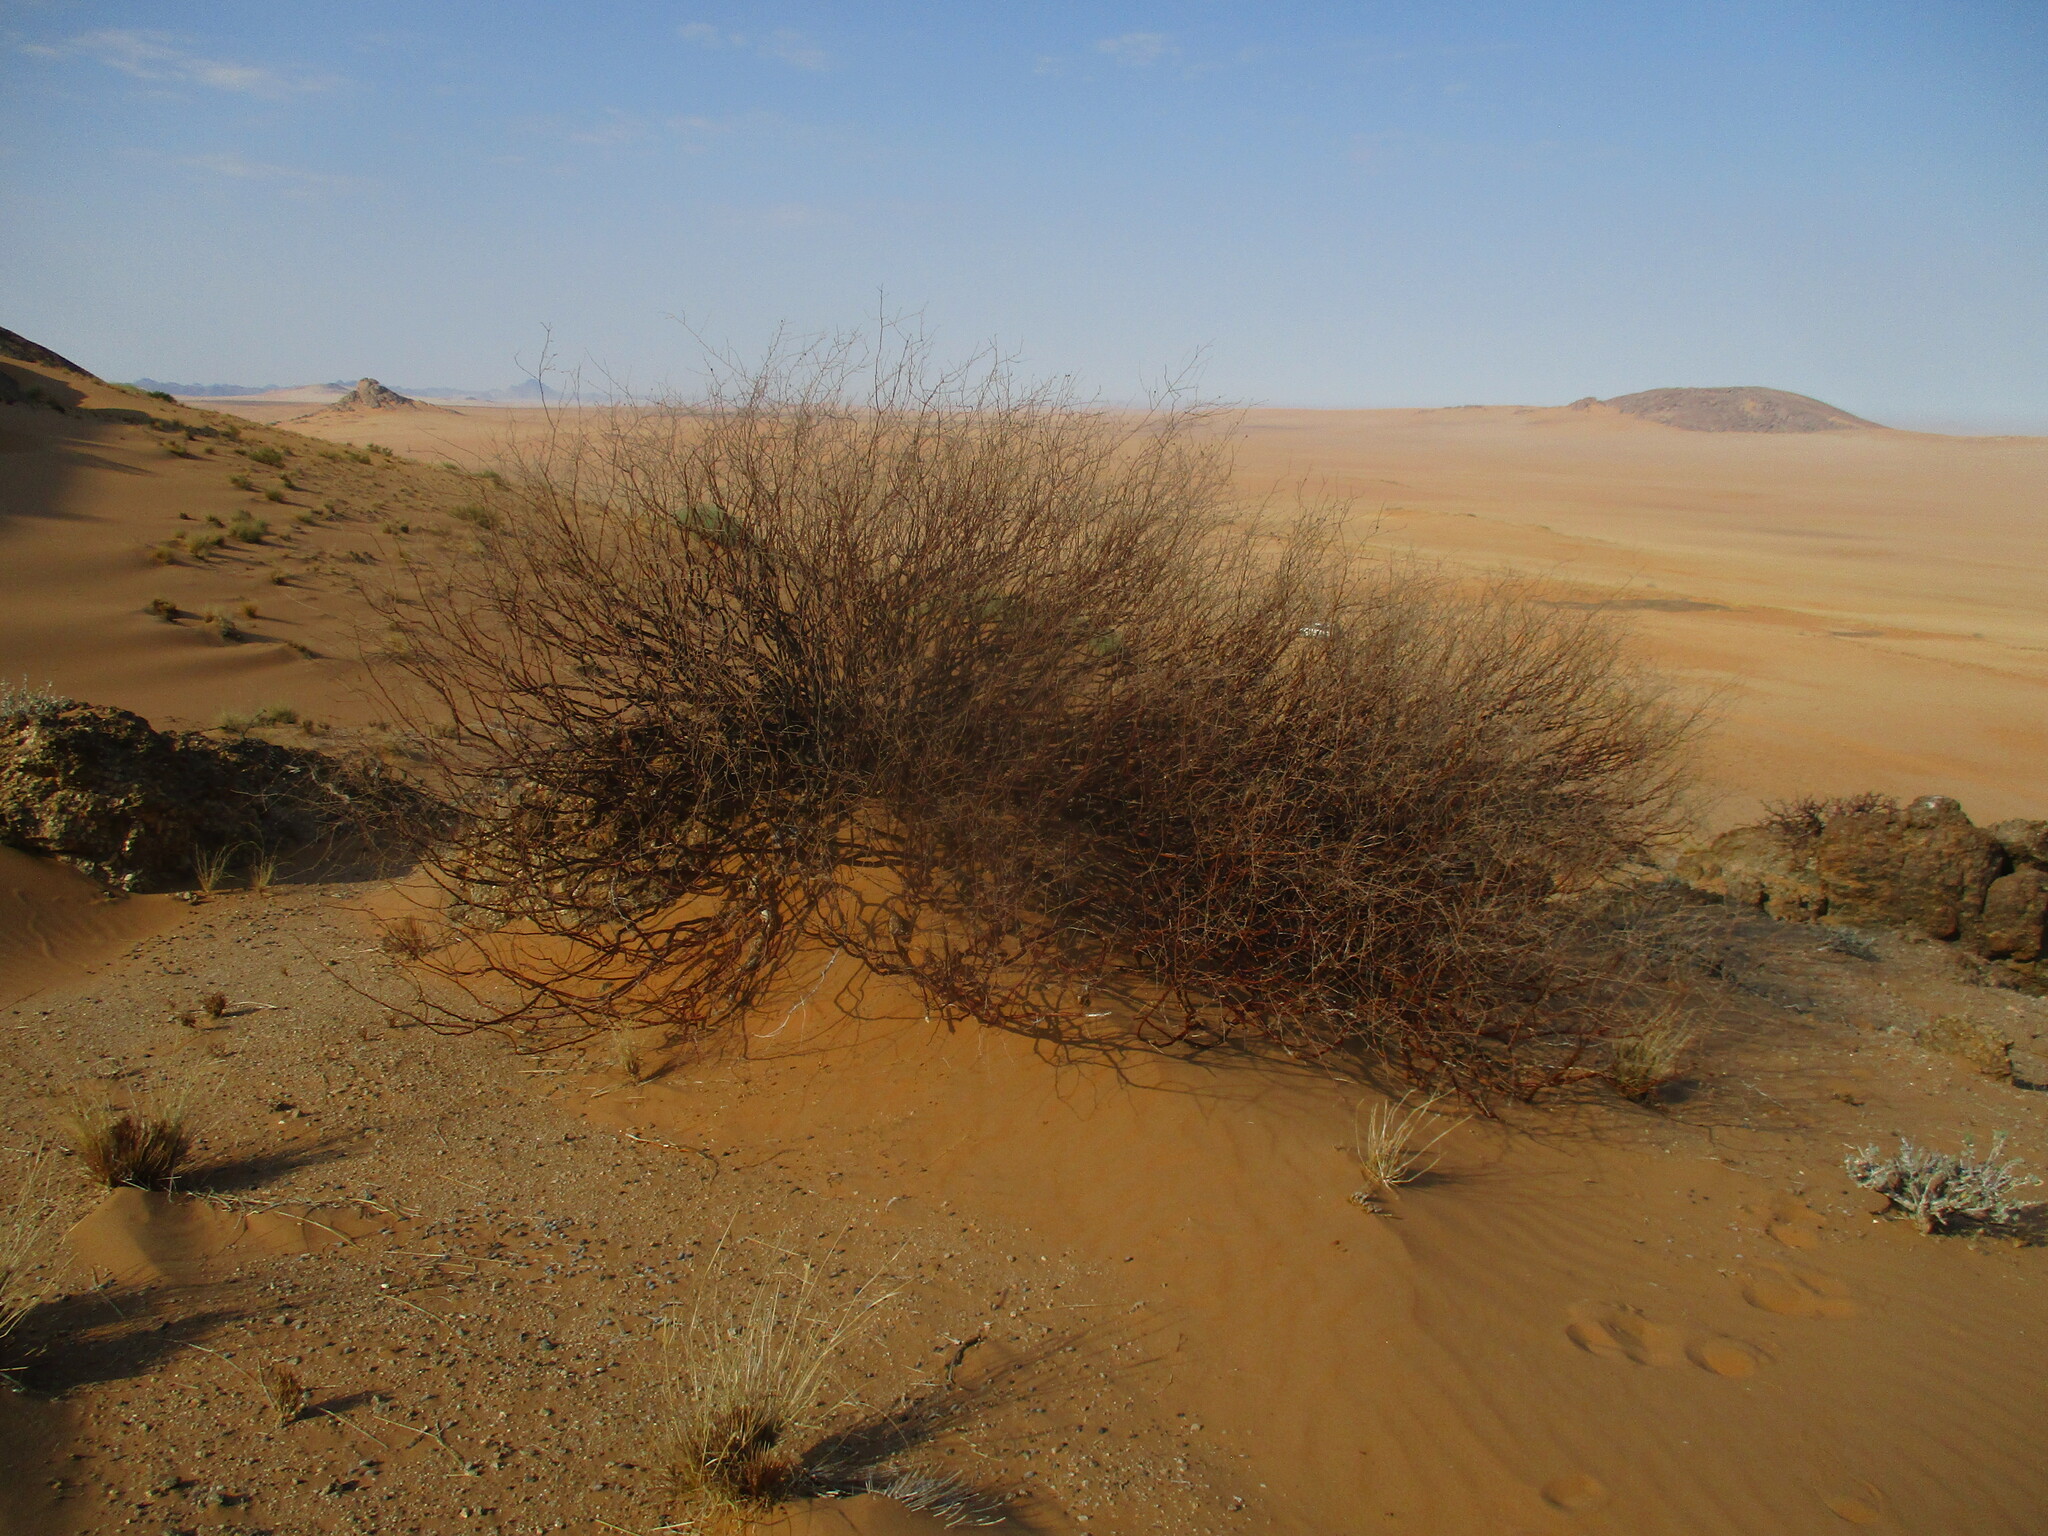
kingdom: Plantae
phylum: Tracheophyta
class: Magnoliopsida
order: Sapindales
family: Burseraceae
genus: Commiphora
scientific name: Commiphora giessii
